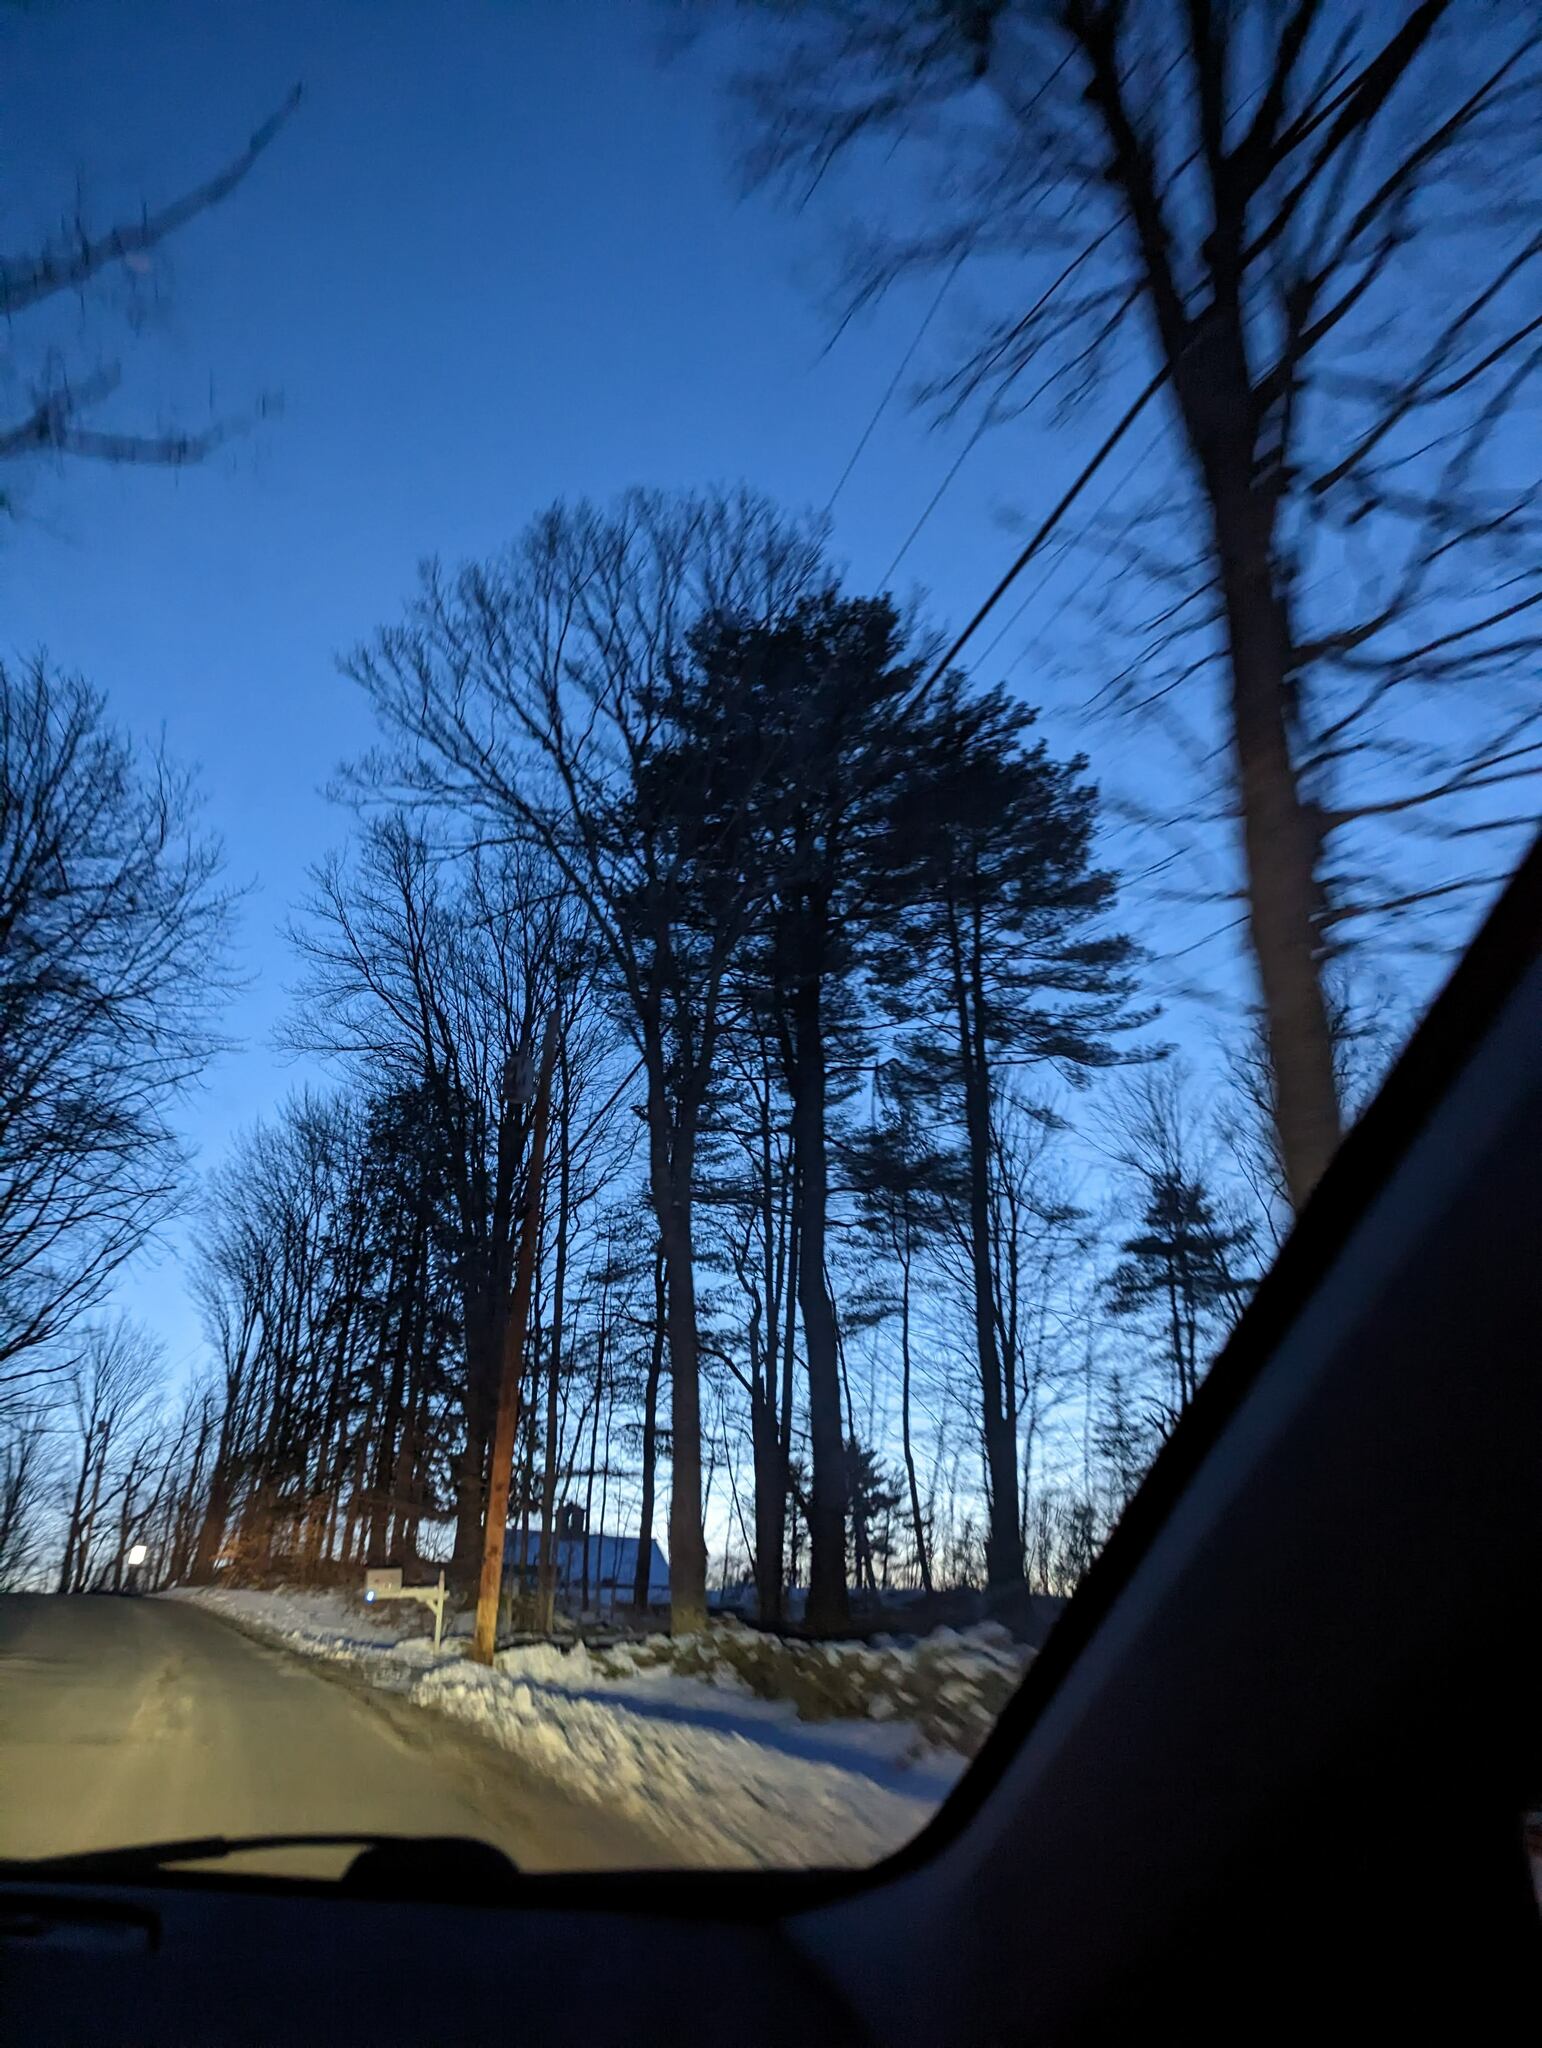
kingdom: Plantae
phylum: Tracheophyta
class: Pinopsida
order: Pinales
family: Pinaceae
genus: Pinus
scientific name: Pinus strobus
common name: Weymouth pine
